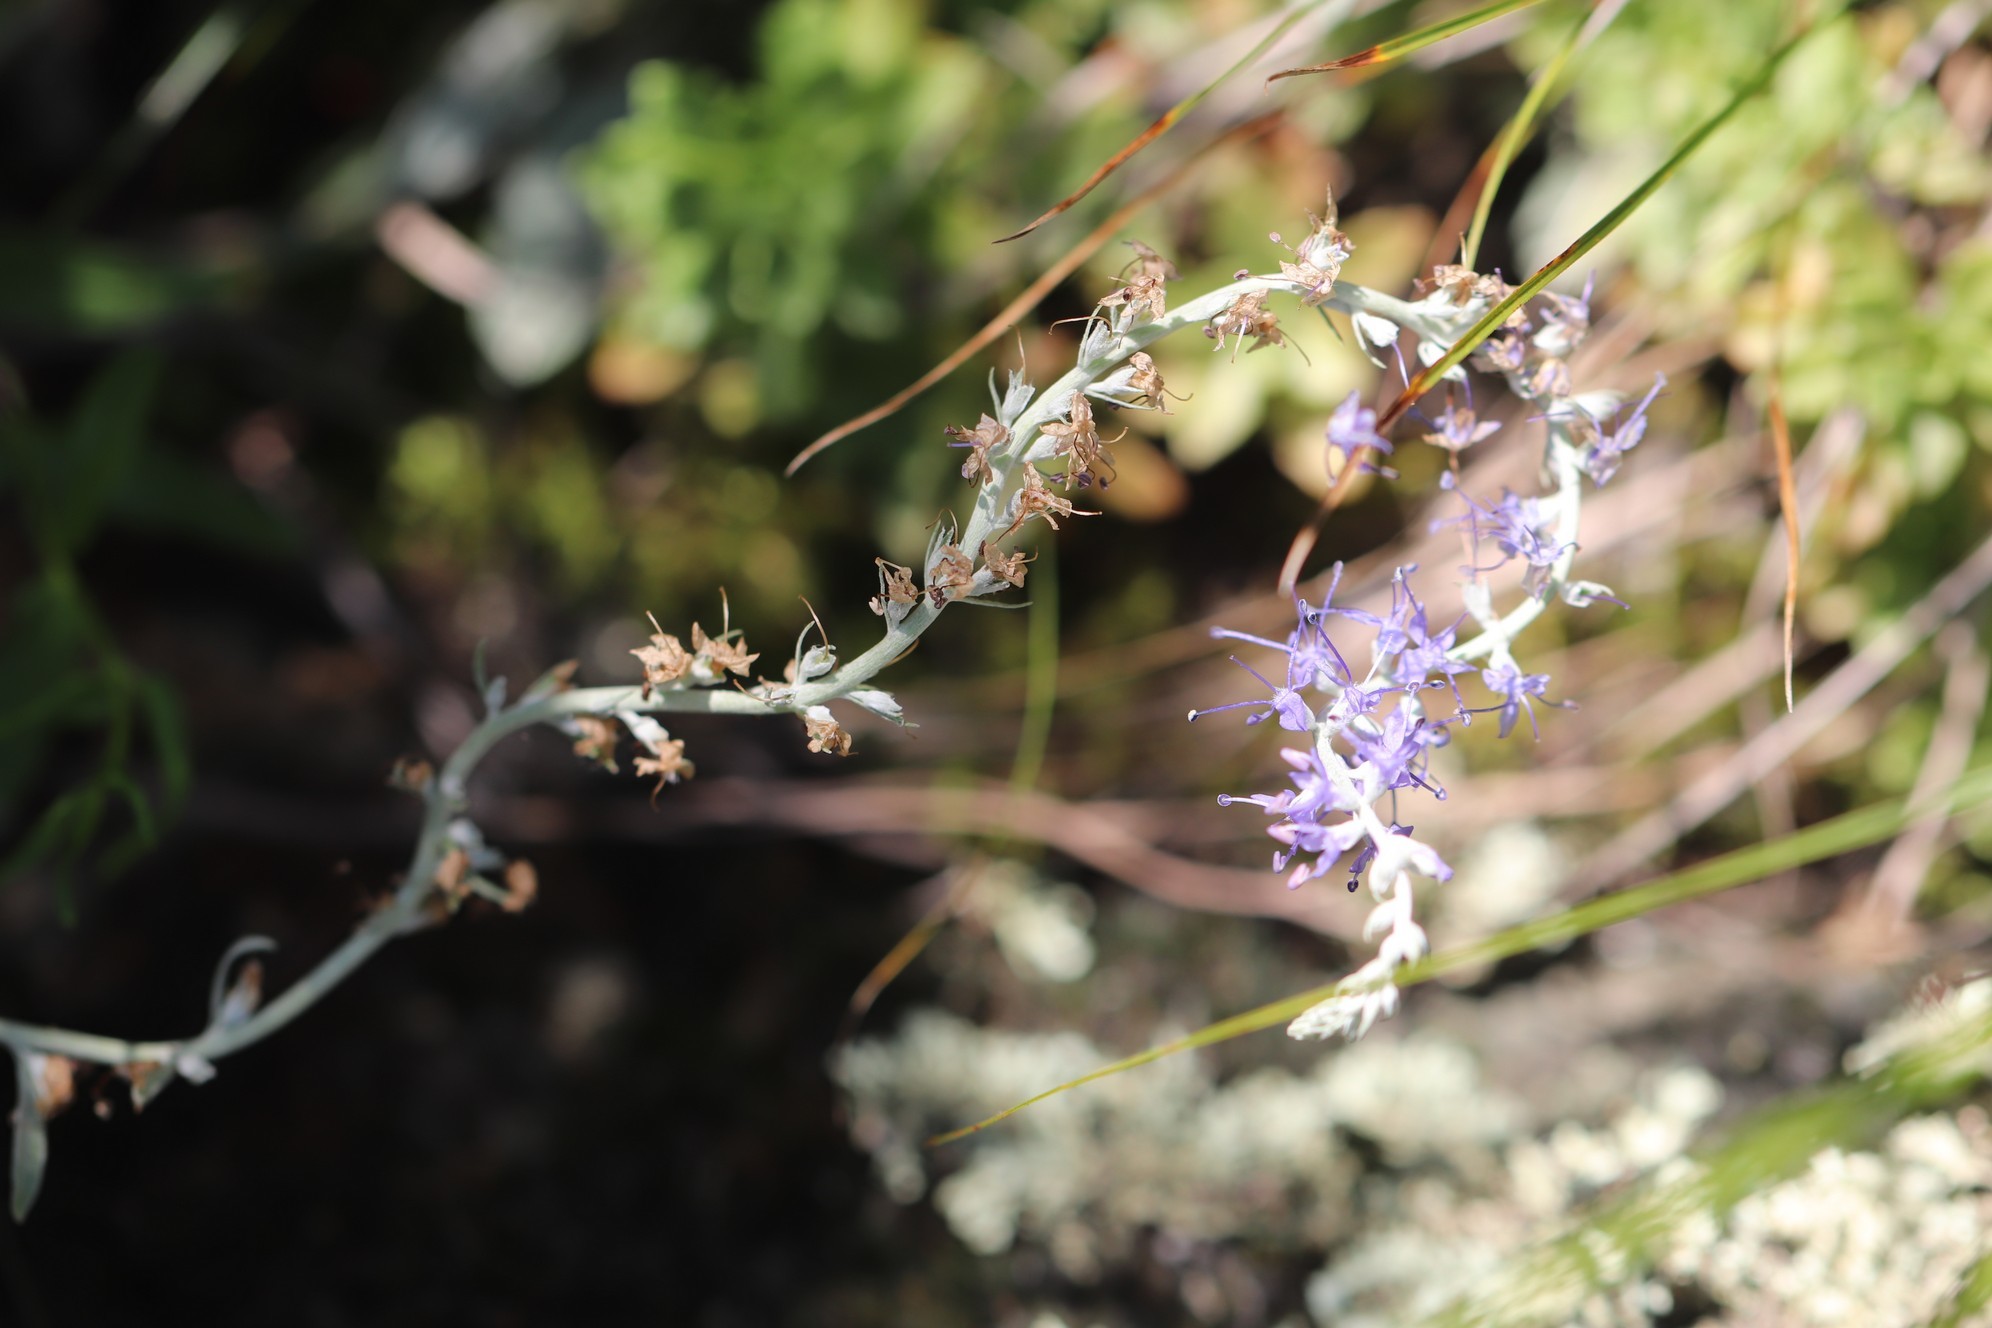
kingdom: Plantae
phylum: Tracheophyta
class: Magnoliopsida
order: Lamiales
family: Plantaginaceae
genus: Veronica
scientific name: Veronica incana
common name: Silver speedwell
